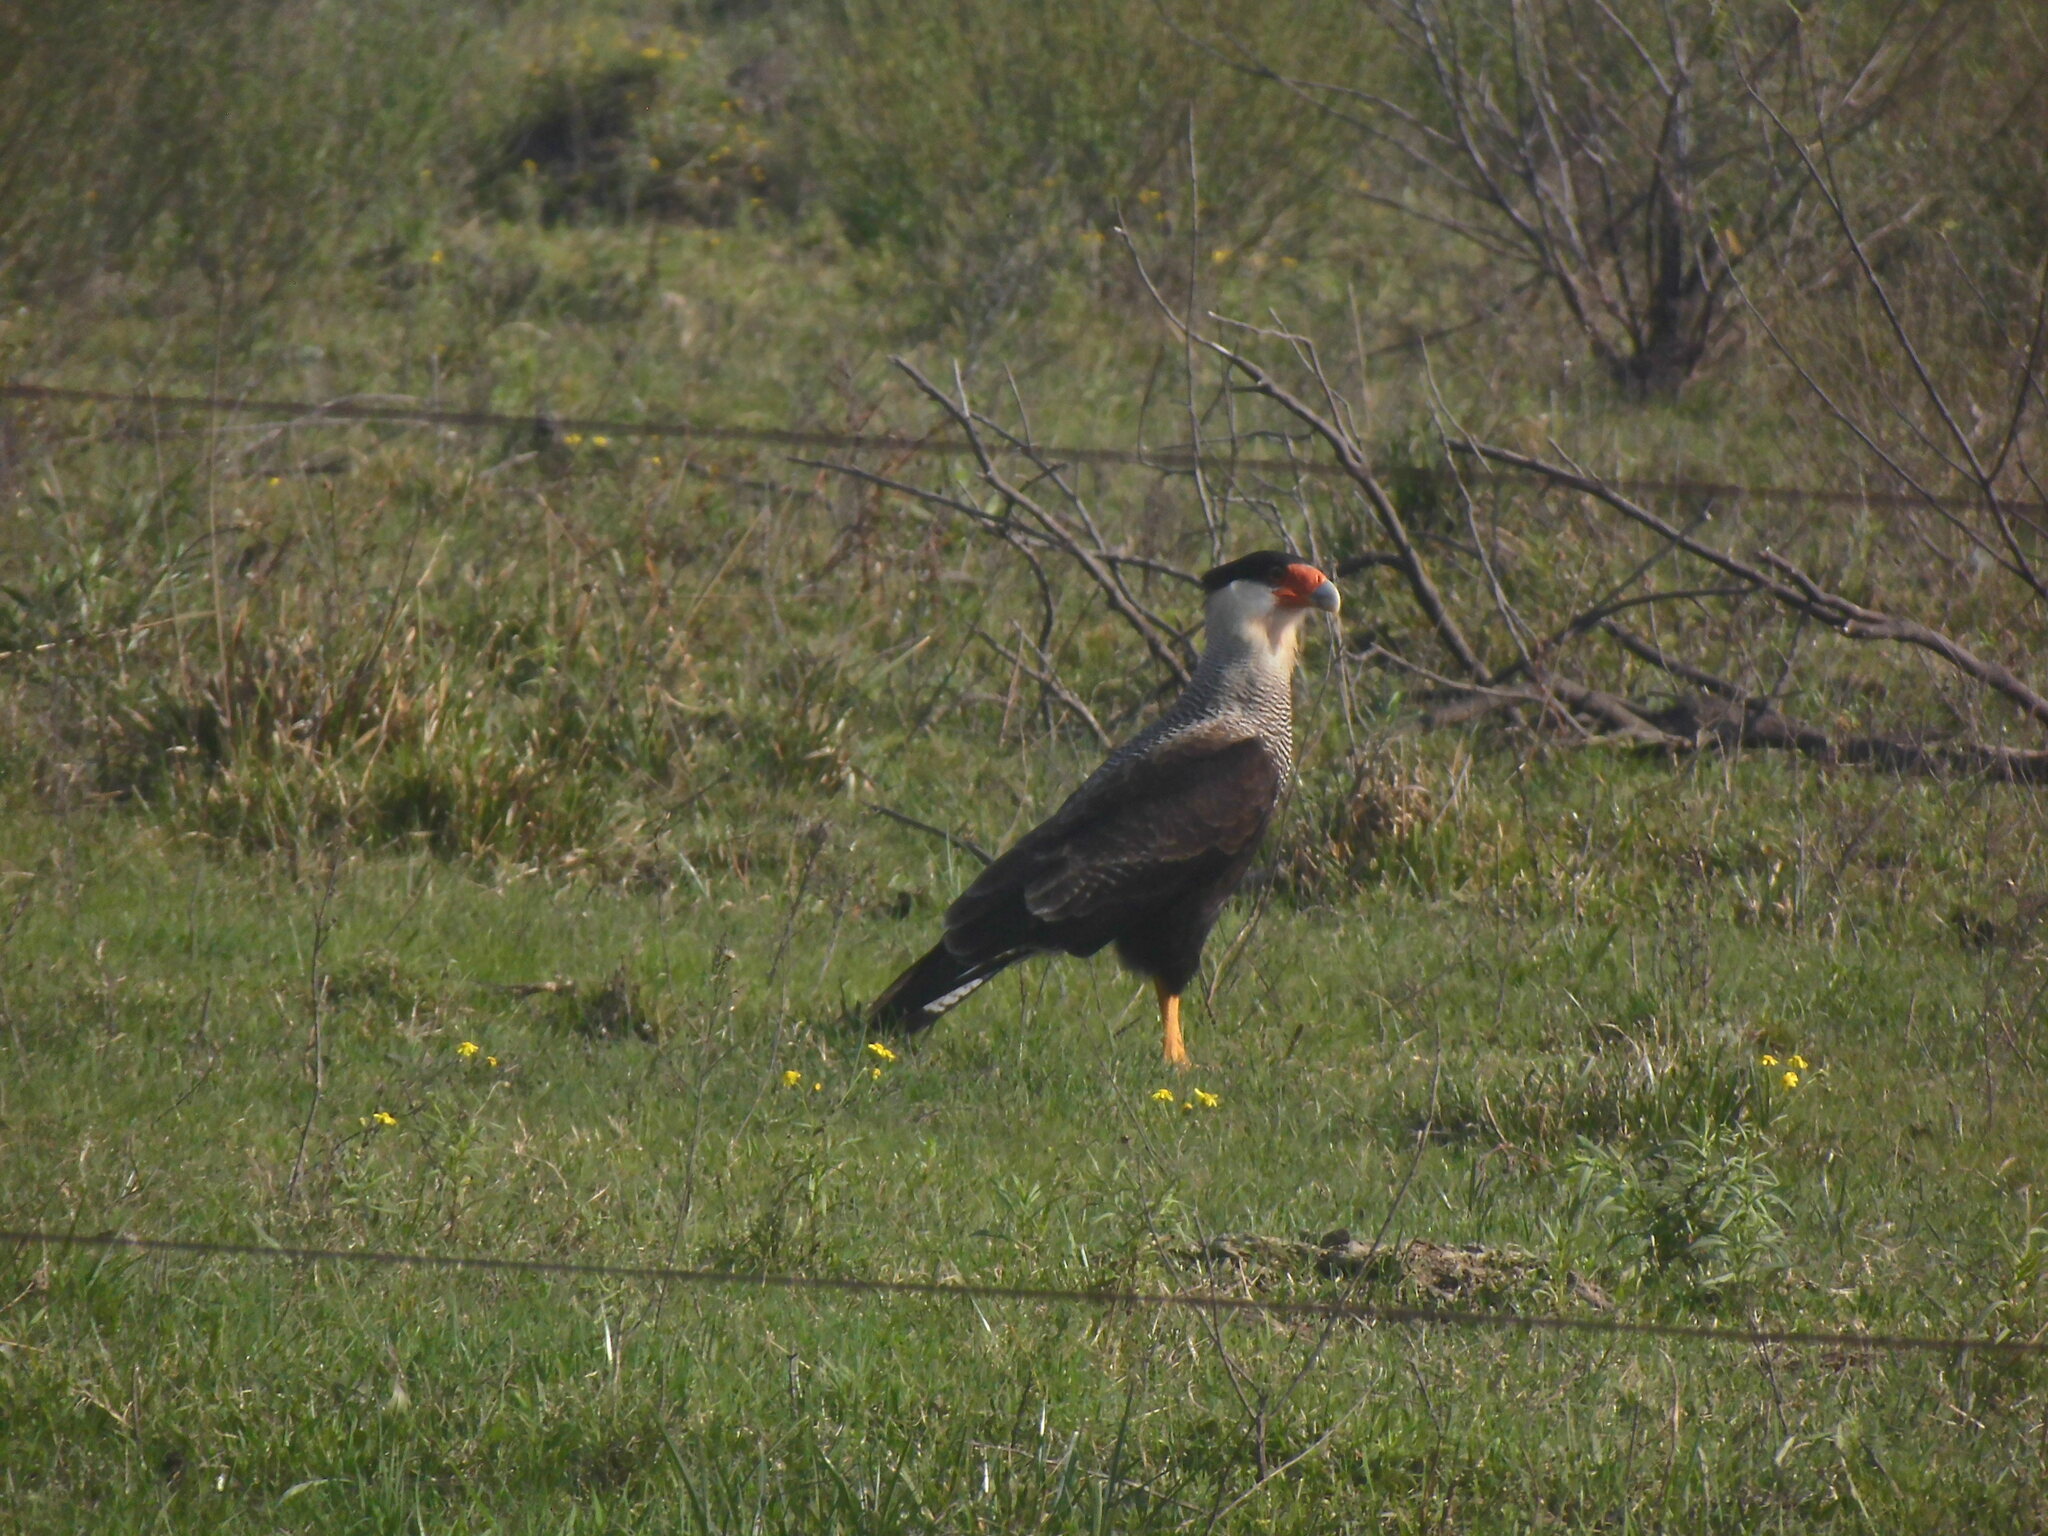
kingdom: Animalia
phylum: Chordata
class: Aves
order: Falconiformes
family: Falconidae
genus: Caracara
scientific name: Caracara plancus
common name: Southern caracara
